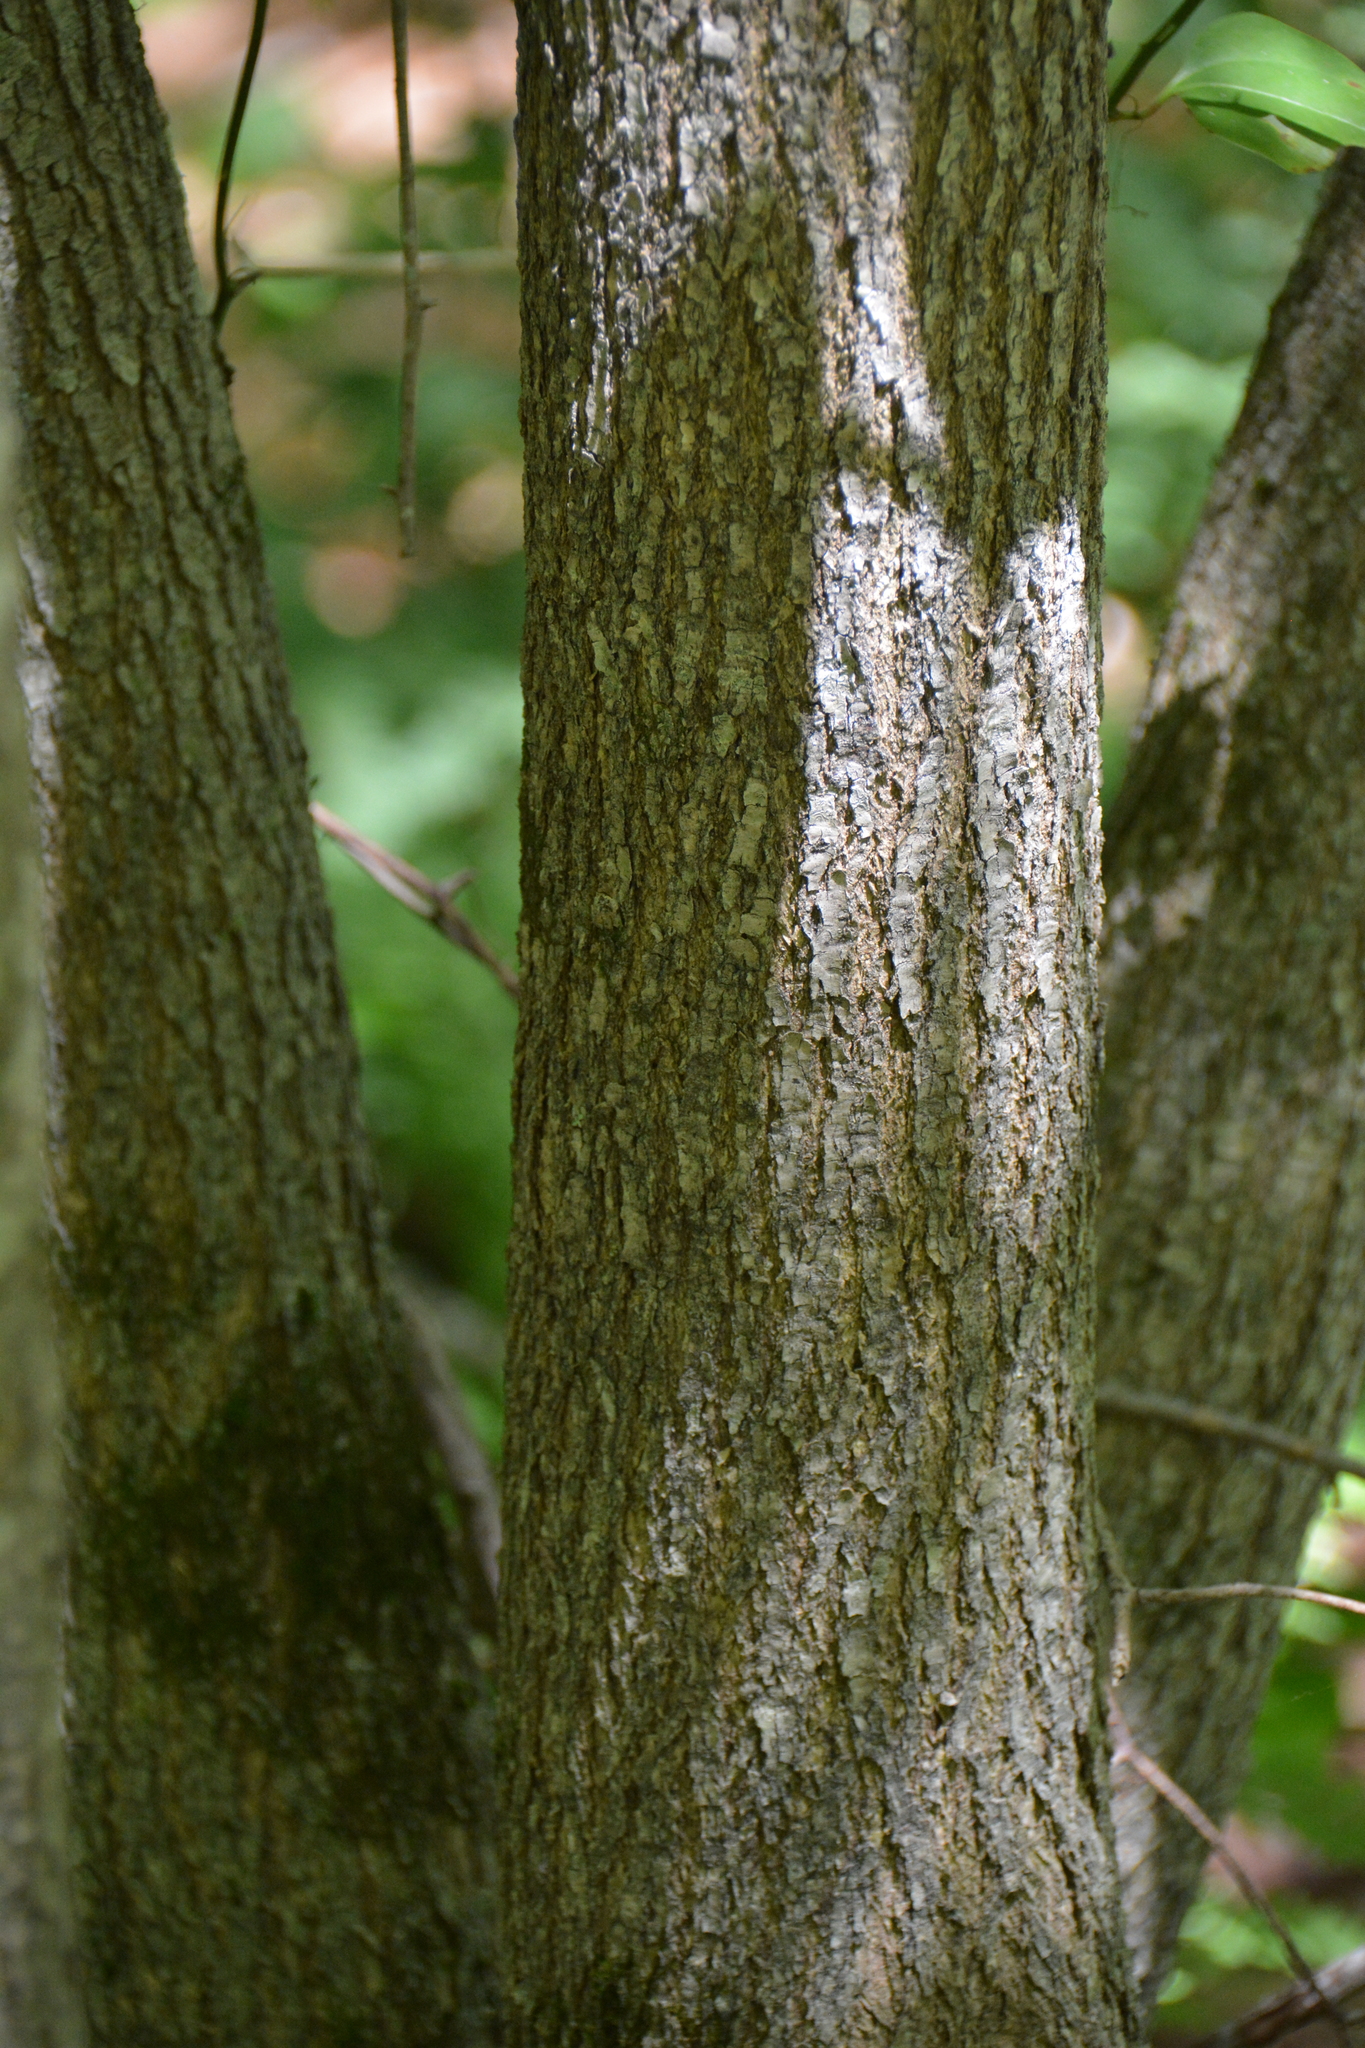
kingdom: Plantae
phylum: Tracheophyta
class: Magnoliopsida
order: Cornales
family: Nyssaceae
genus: Nyssa
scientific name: Nyssa sylvatica
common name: Black tupelo
